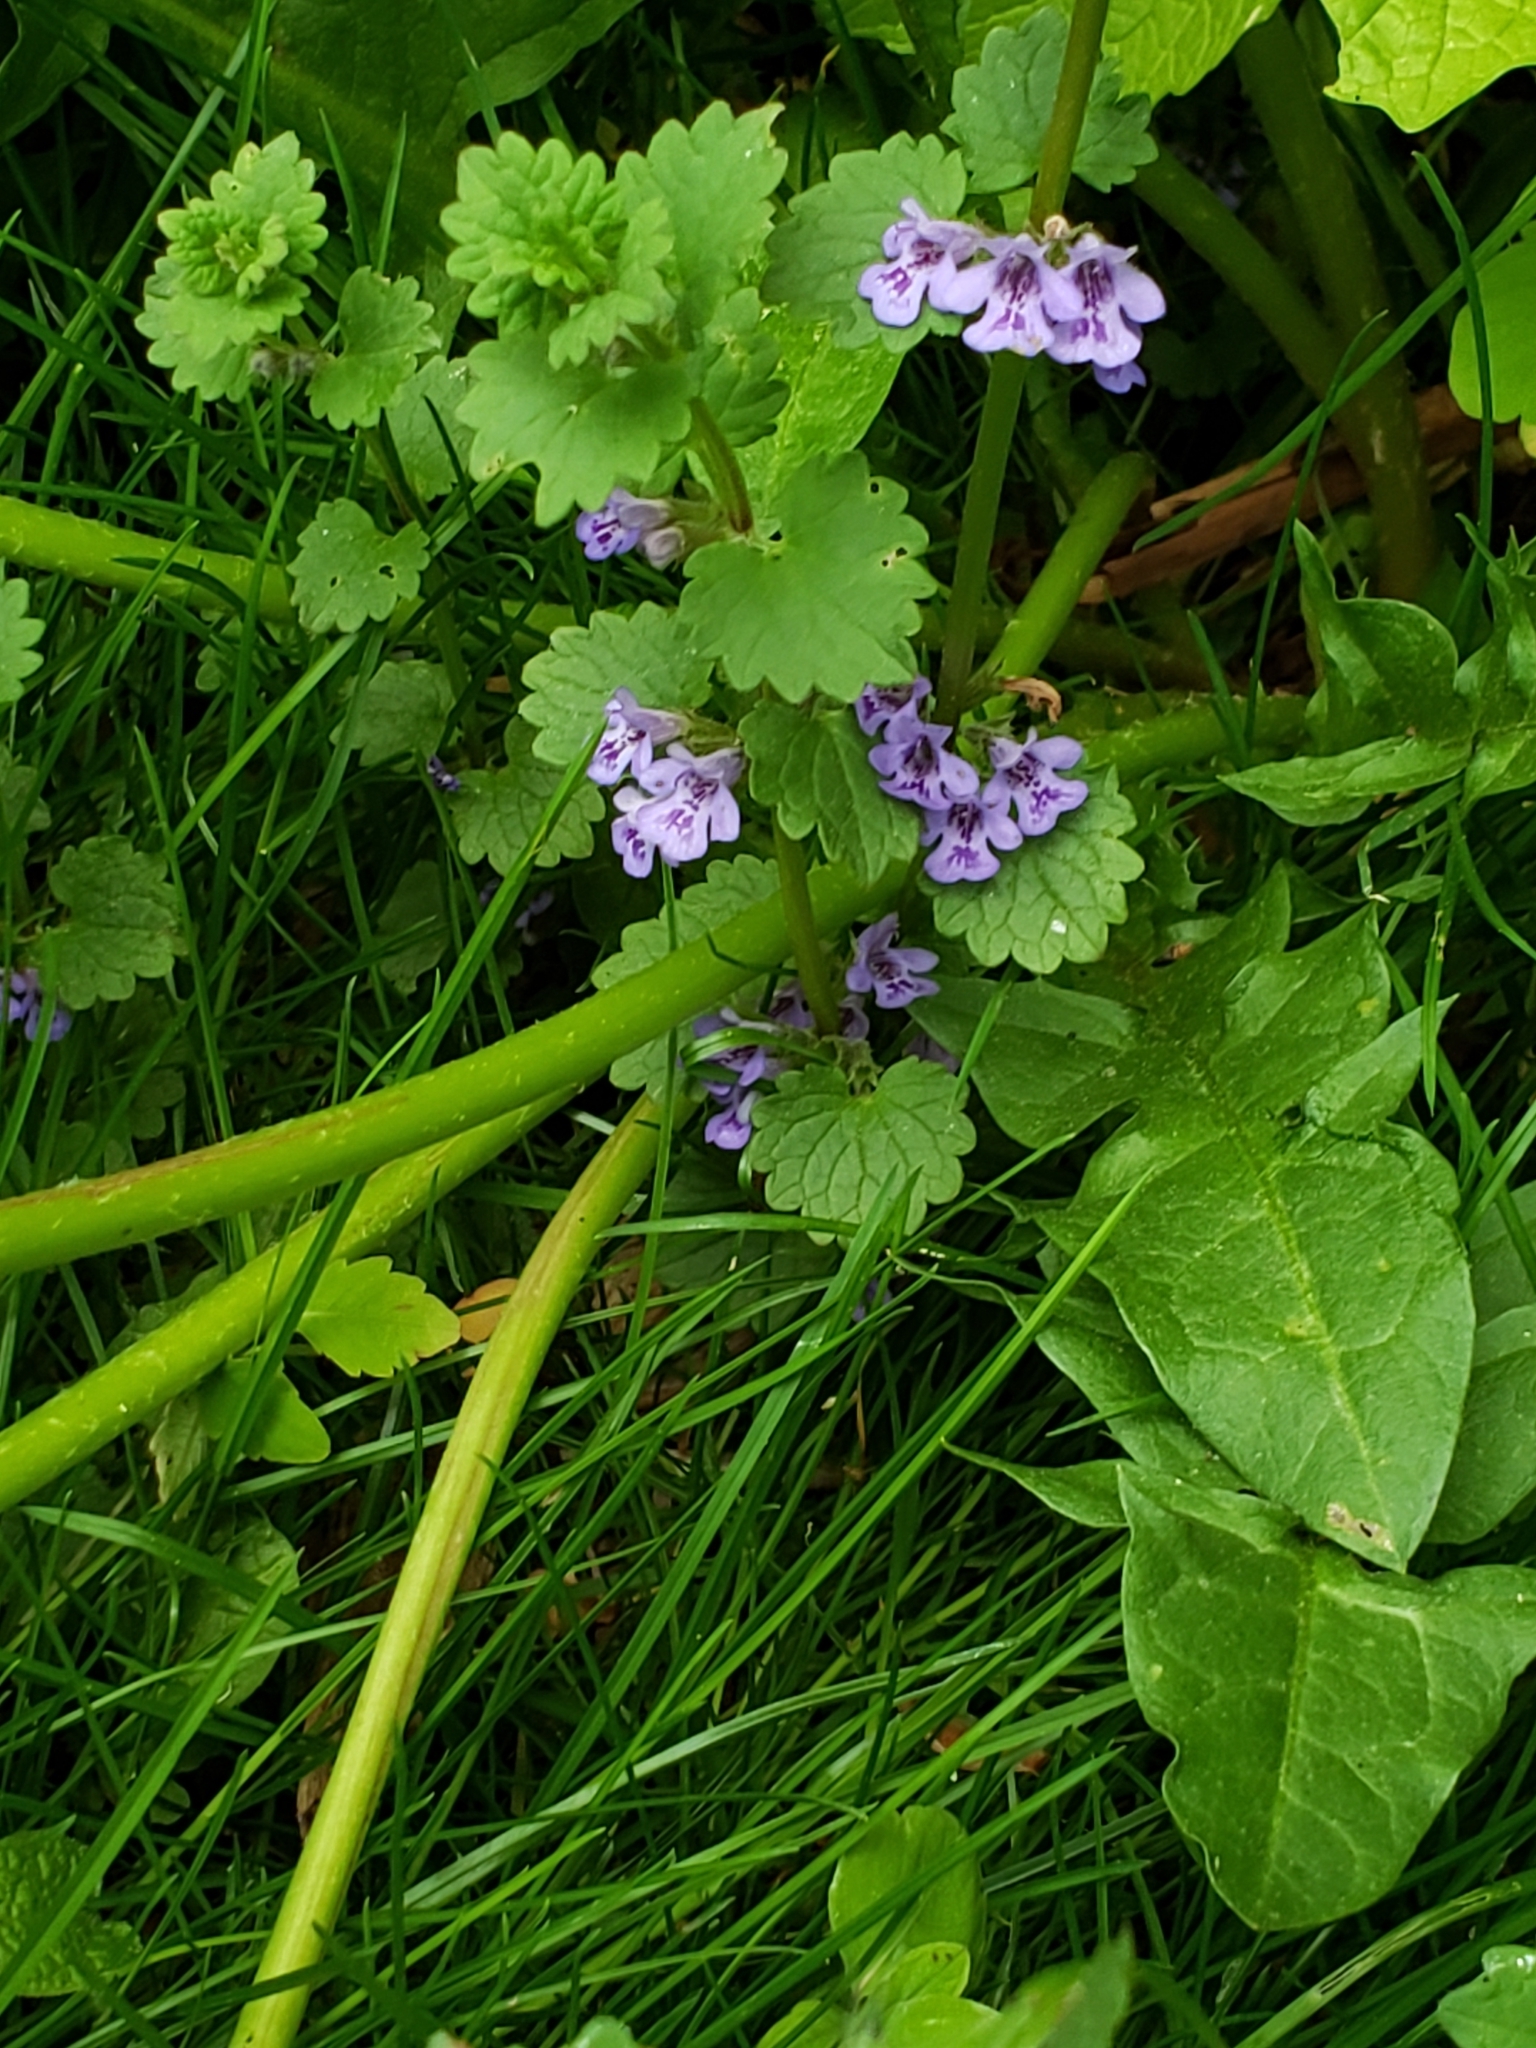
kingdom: Plantae
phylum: Tracheophyta
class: Magnoliopsida
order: Lamiales
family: Lamiaceae
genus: Glechoma
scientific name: Glechoma hederacea
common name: Ground ivy
